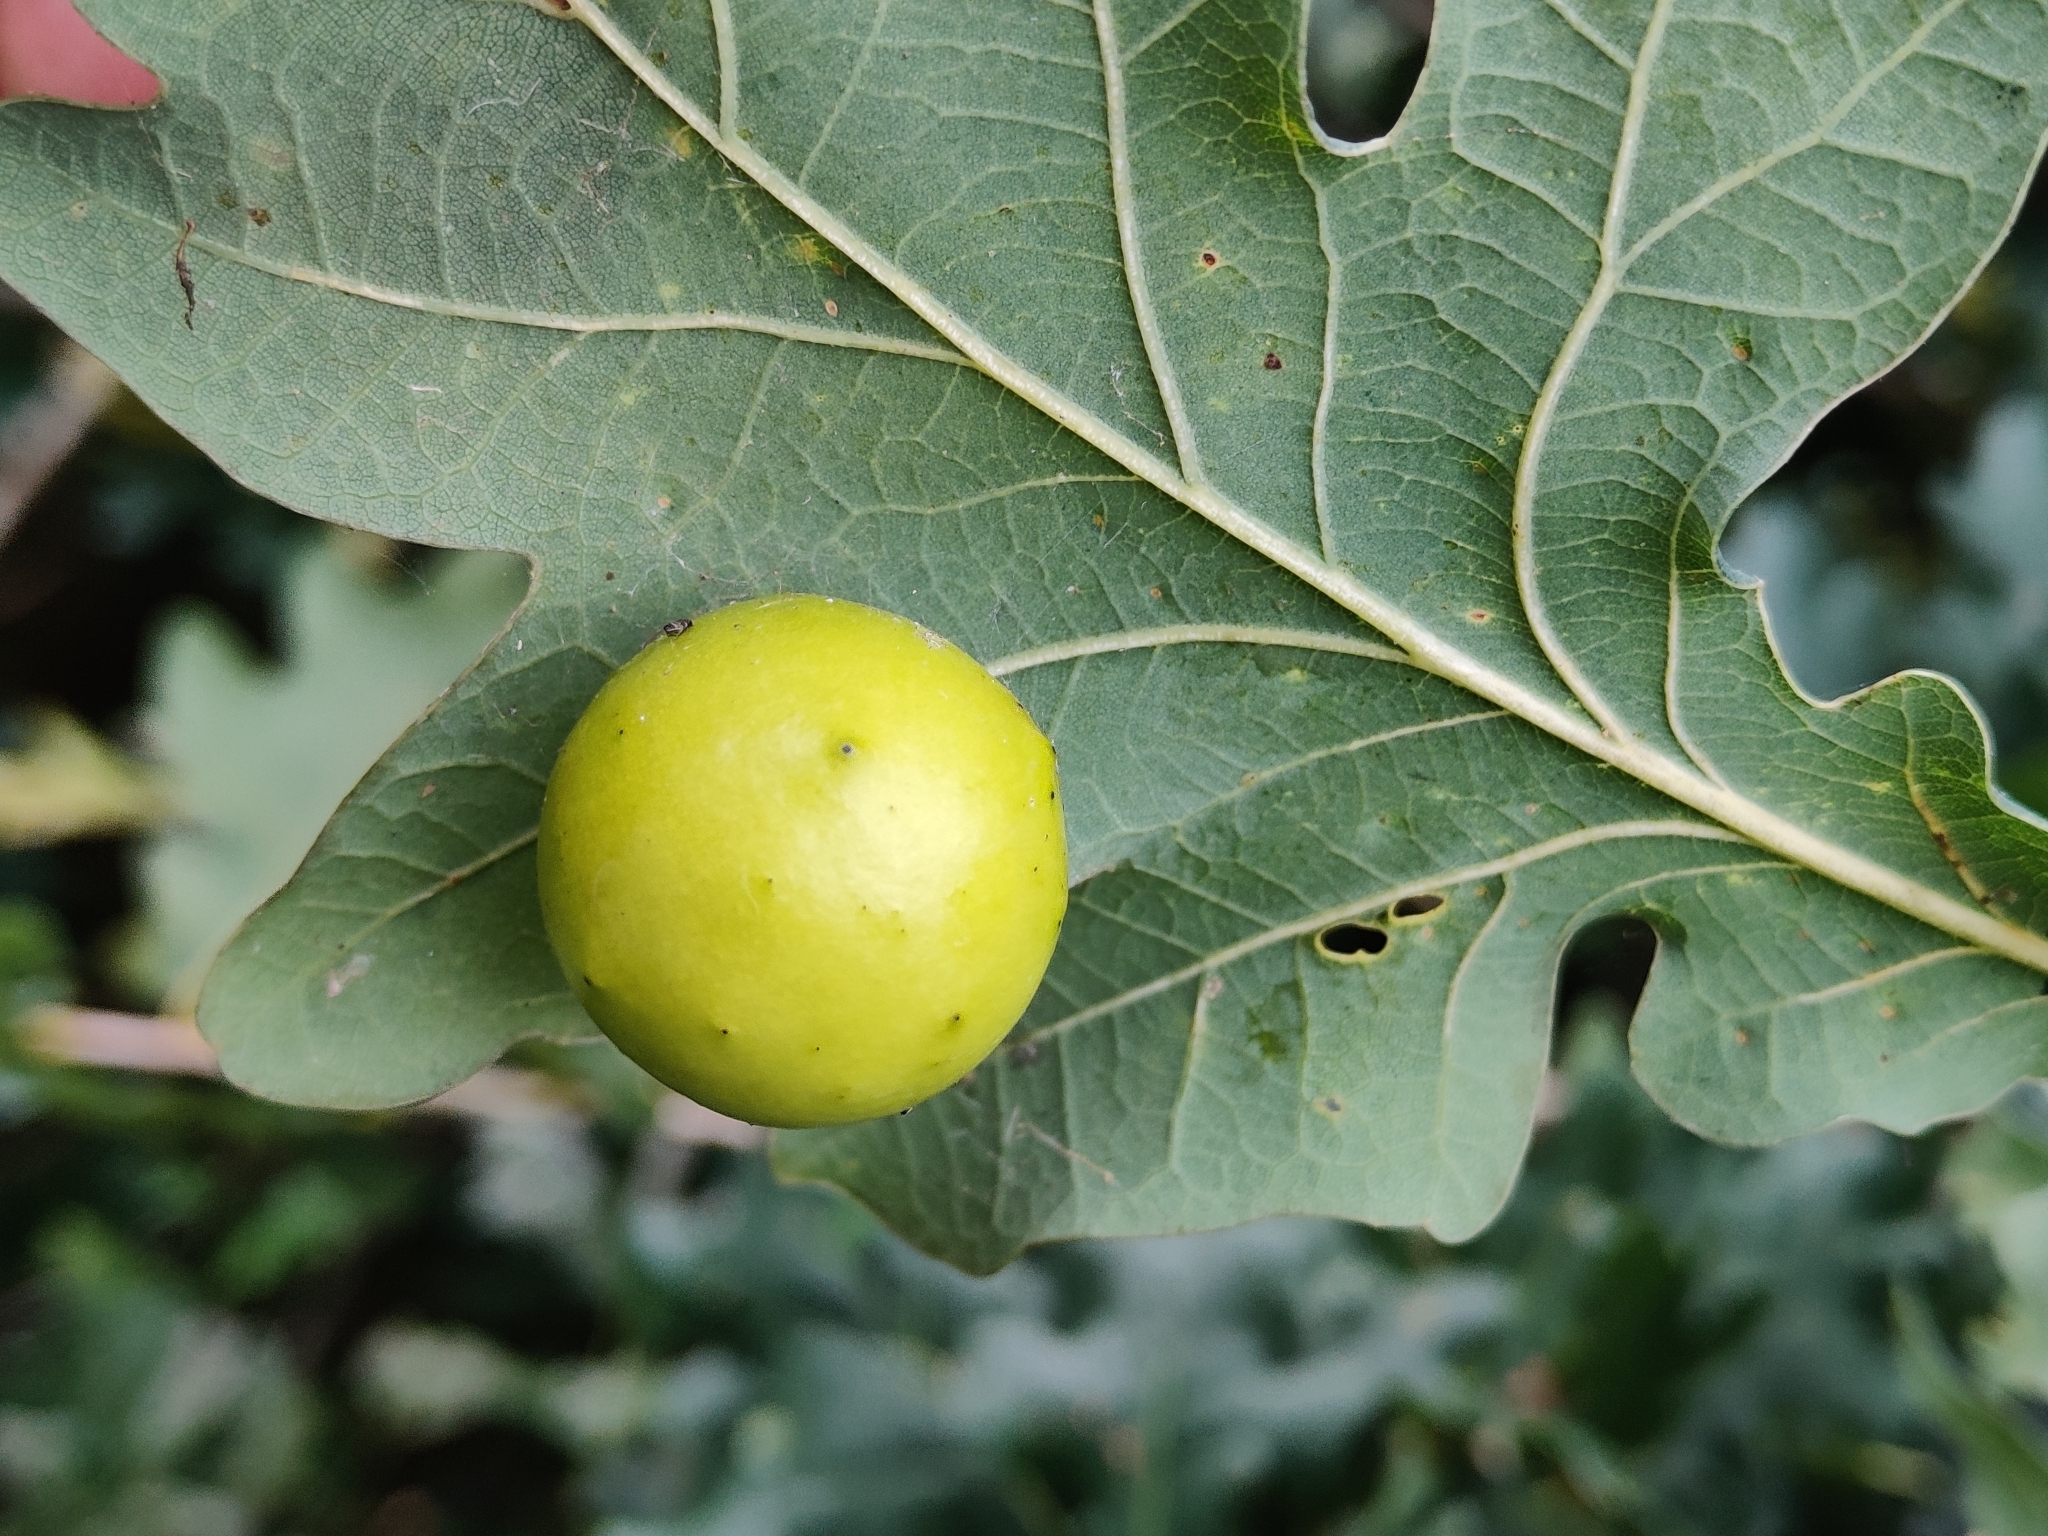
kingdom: Animalia
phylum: Arthropoda
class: Insecta
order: Hymenoptera
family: Cynipidae
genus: Cynips
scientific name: Cynips quercusfolii
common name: Cherry gall
